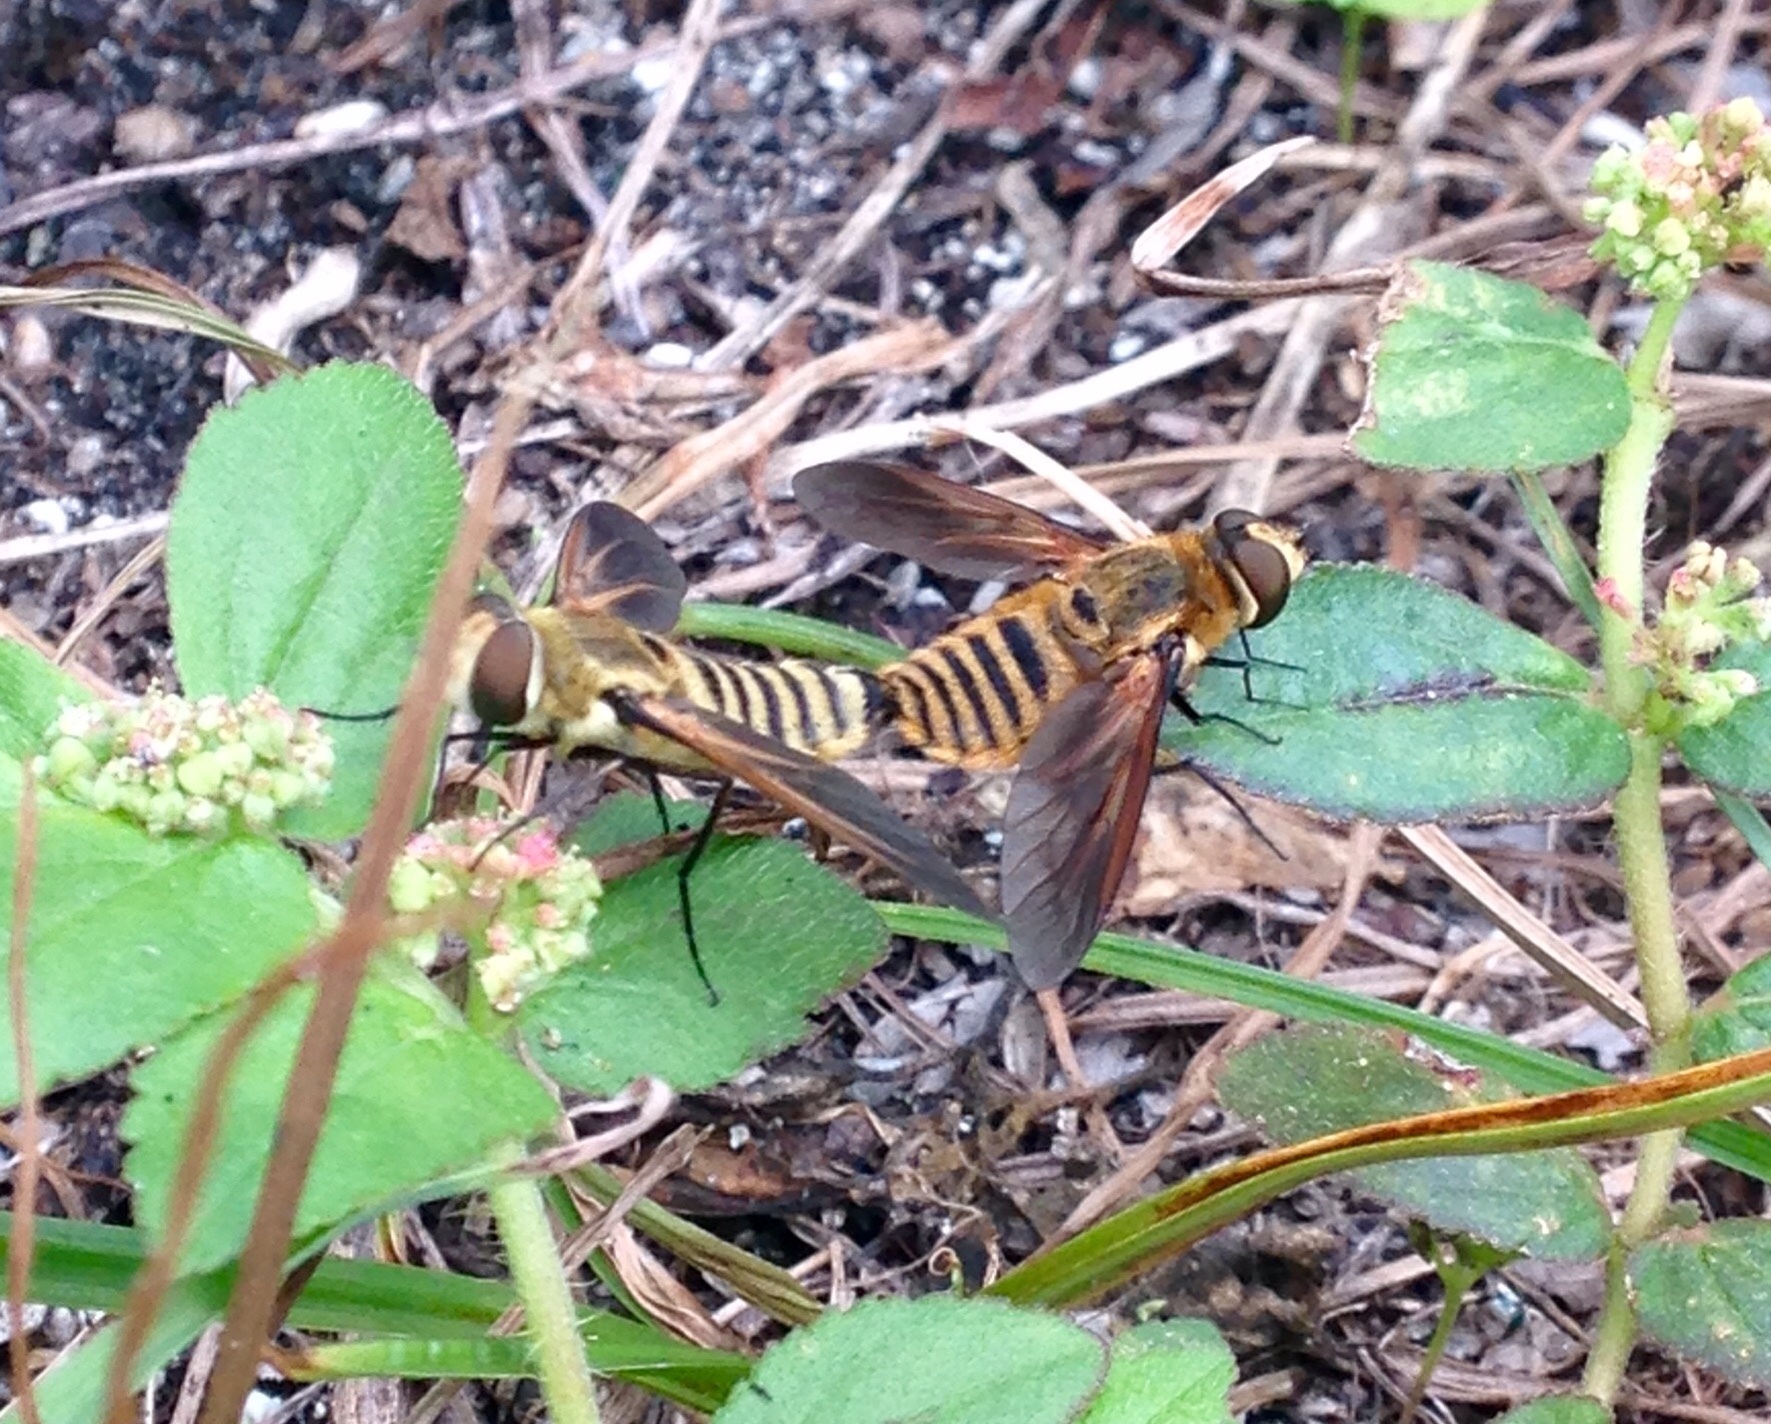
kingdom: Animalia
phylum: Arthropoda
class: Insecta
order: Diptera
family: Bombyliidae
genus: Poecilanthrax
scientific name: Poecilanthrax lucifer
